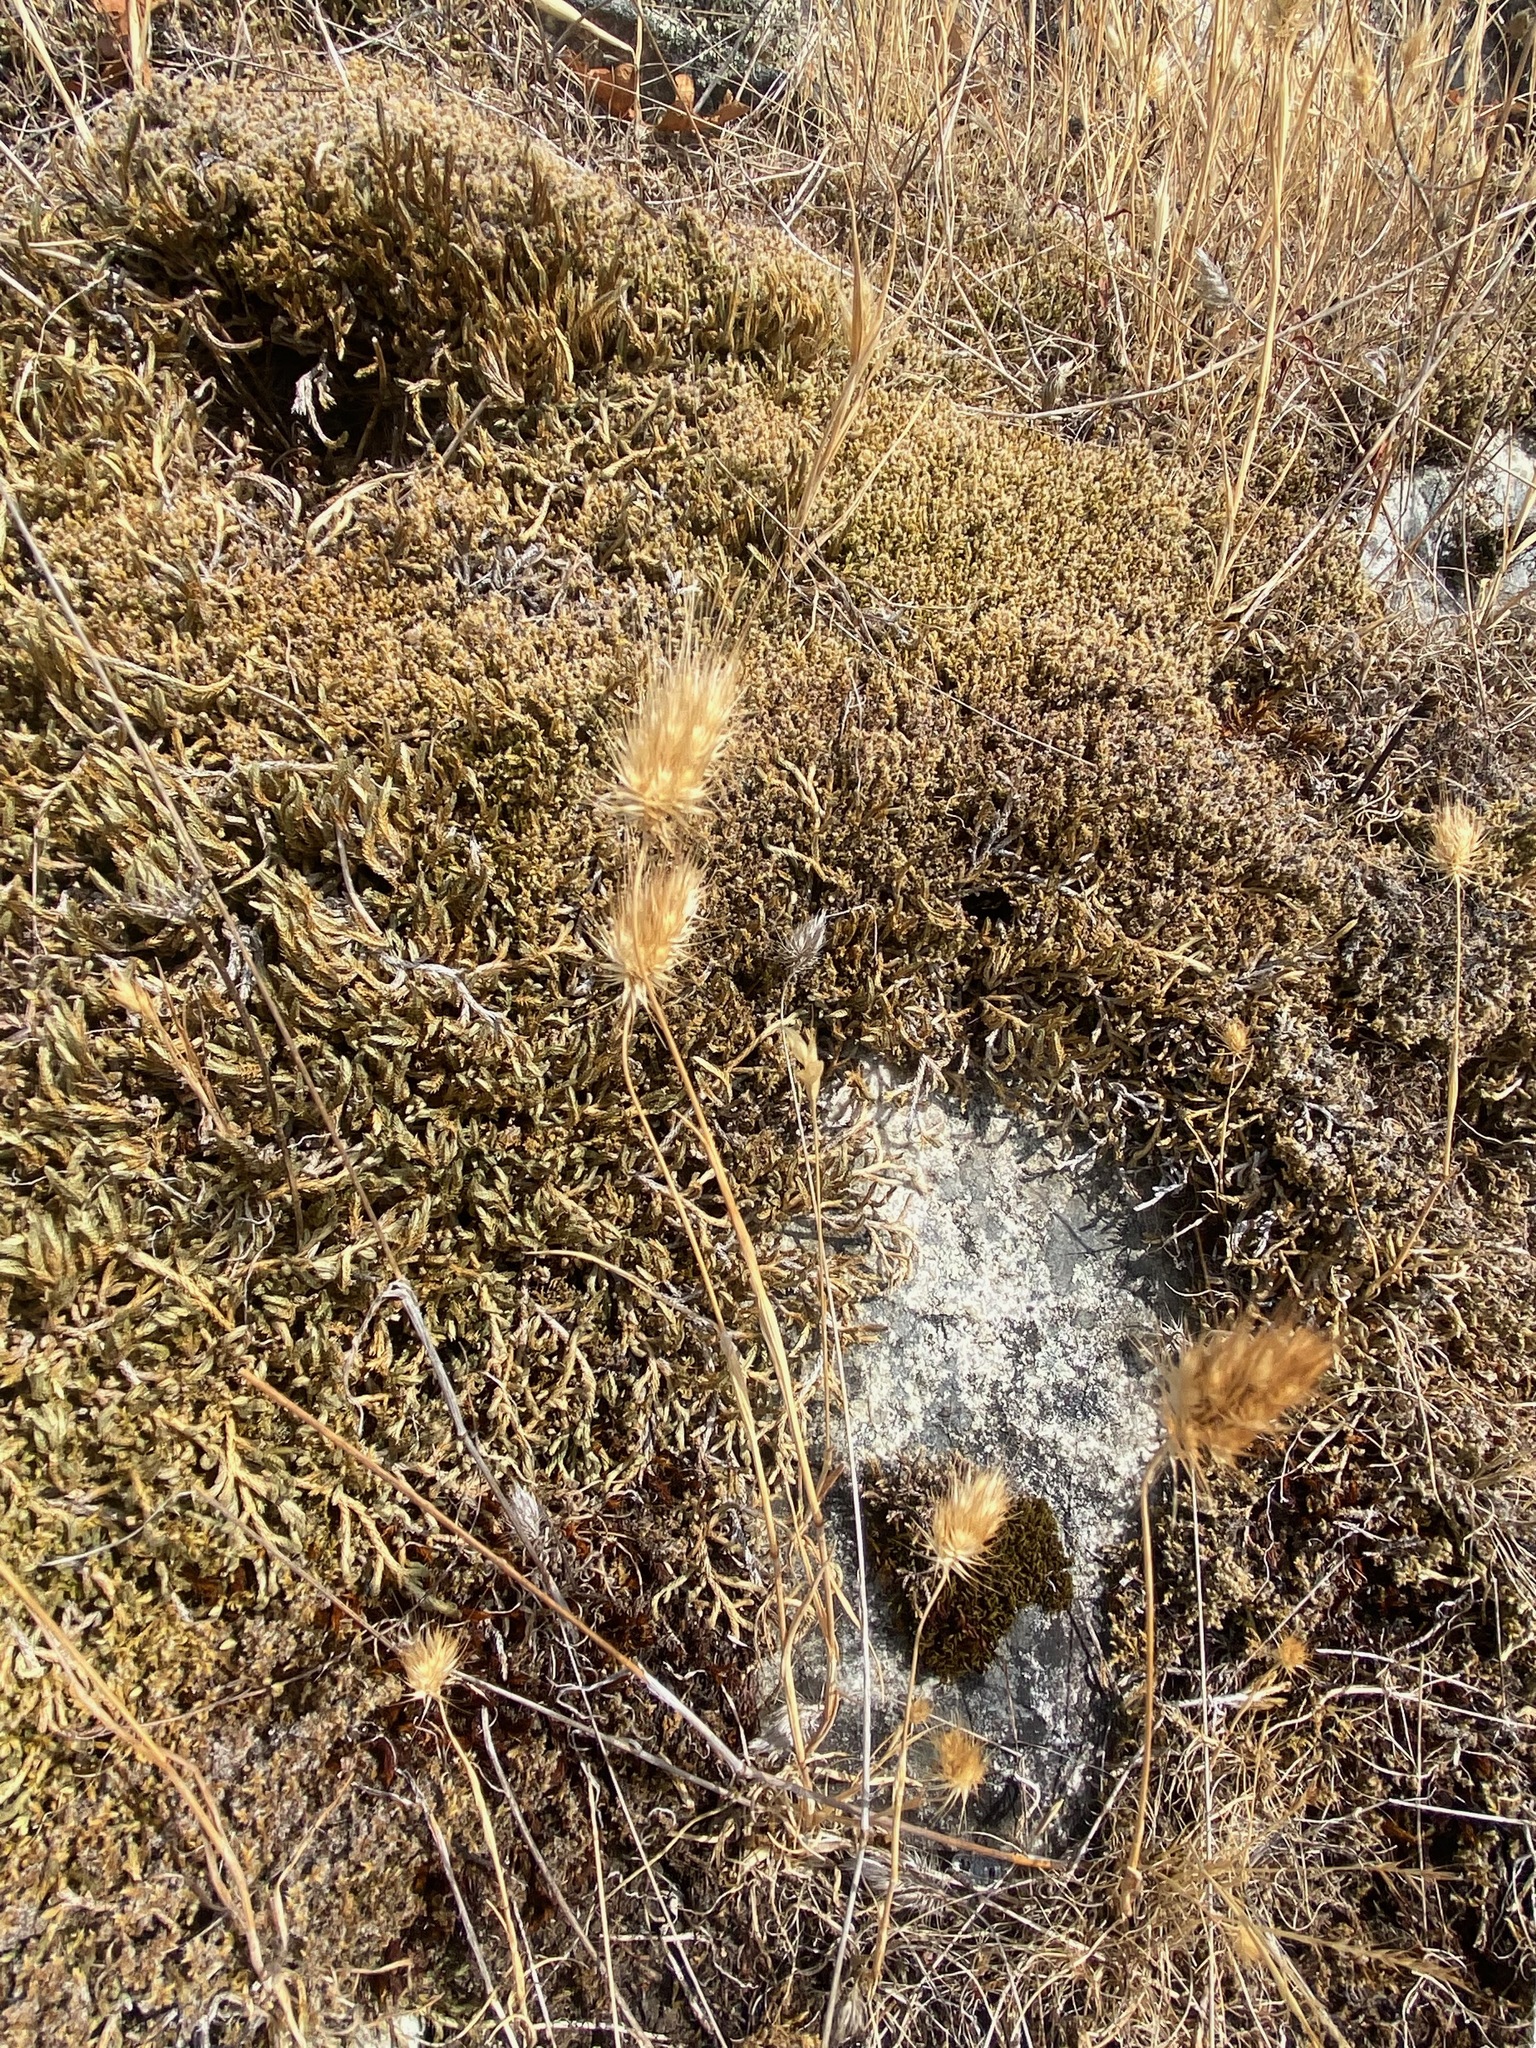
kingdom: Plantae
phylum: Tracheophyta
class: Liliopsida
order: Poales
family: Poaceae
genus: Cynosurus
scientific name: Cynosurus echinatus
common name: Rough dog's-tail
